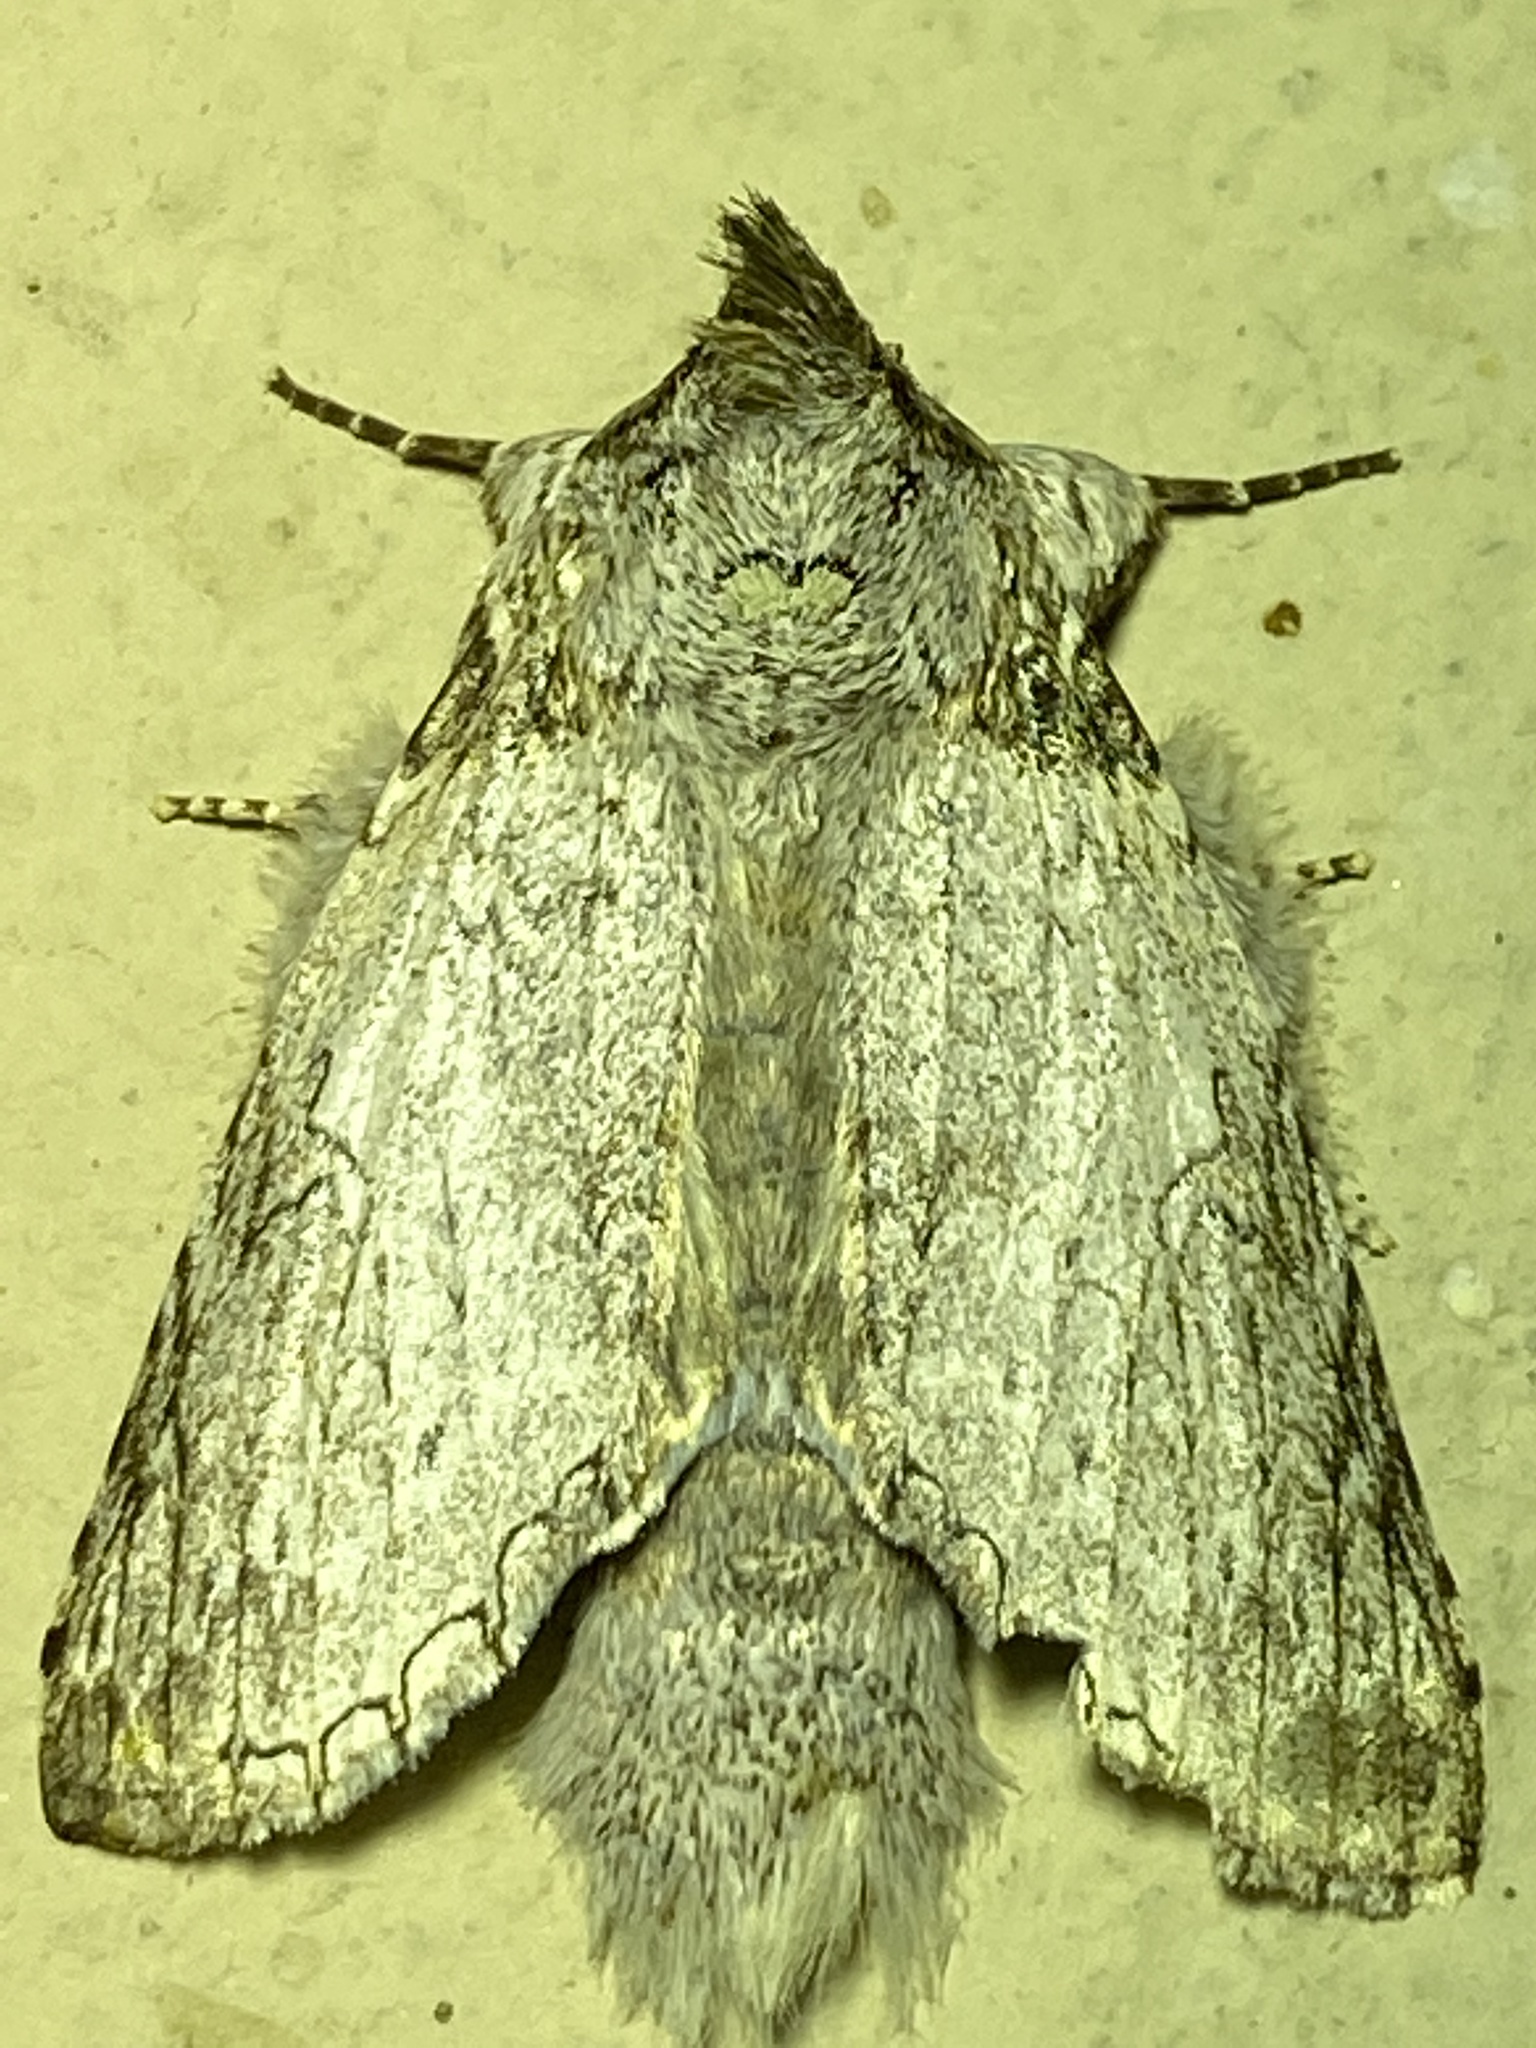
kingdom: Animalia
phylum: Arthropoda
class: Insecta
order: Lepidoptera
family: Notodontidae
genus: Rifargia
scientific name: Rifargia distinguenda
